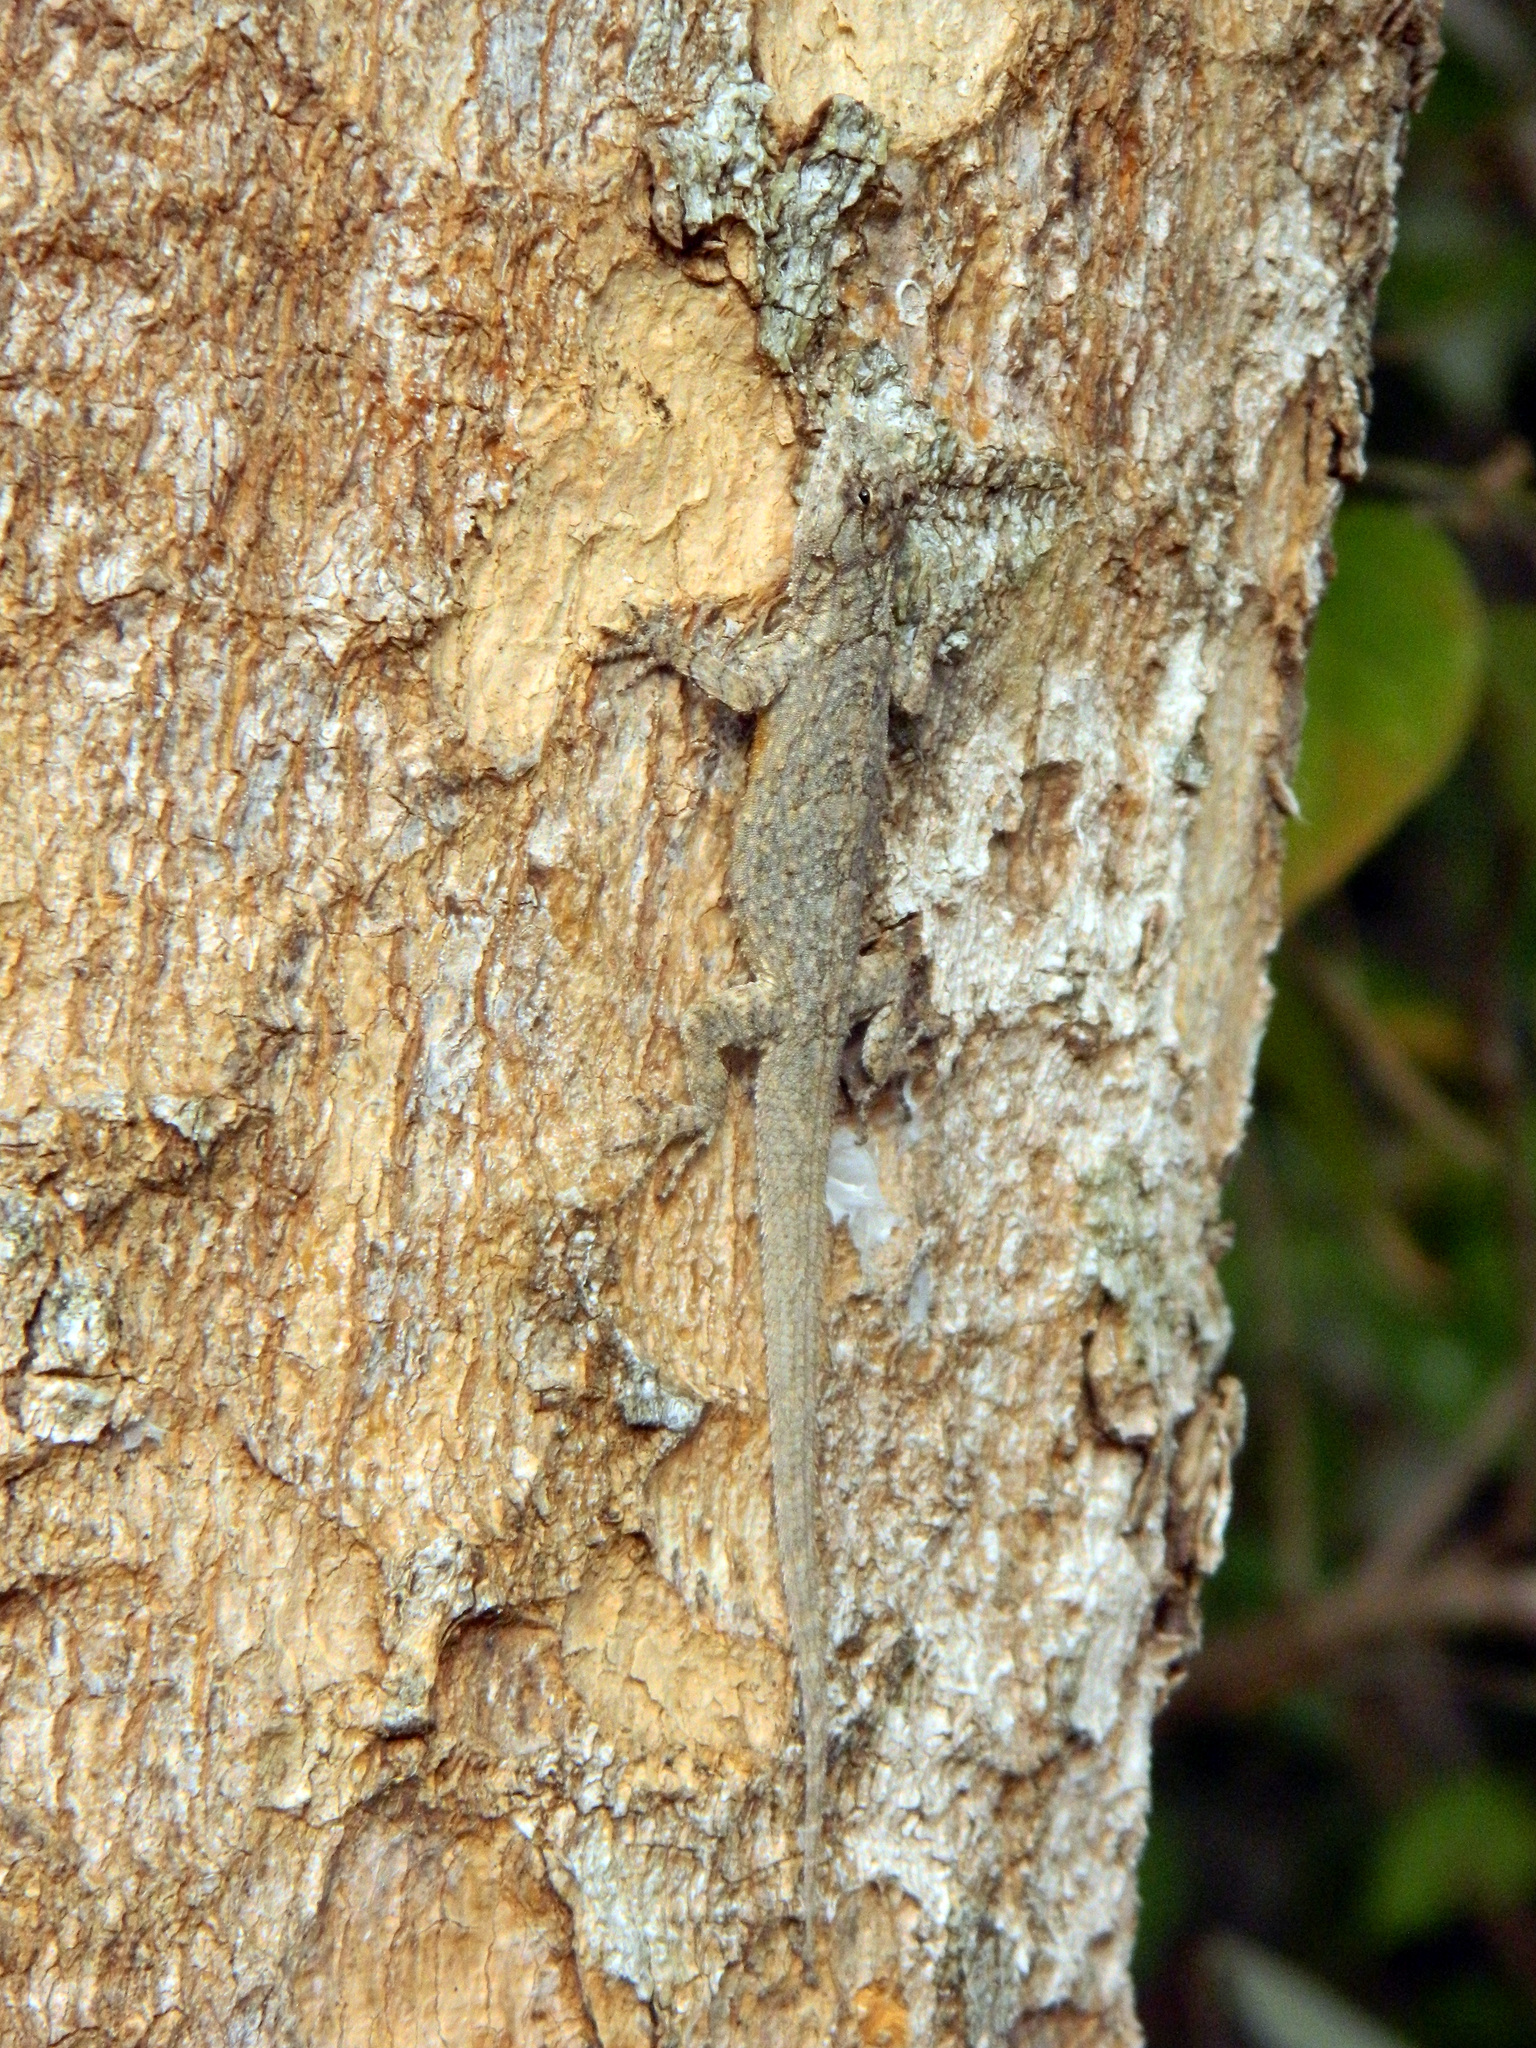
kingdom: Animalia
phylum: Chordata
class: Squamata
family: Phrynosomatidae
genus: Urosaurus
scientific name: Urosaurus bicarinatus
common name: Tropical tree lizard
